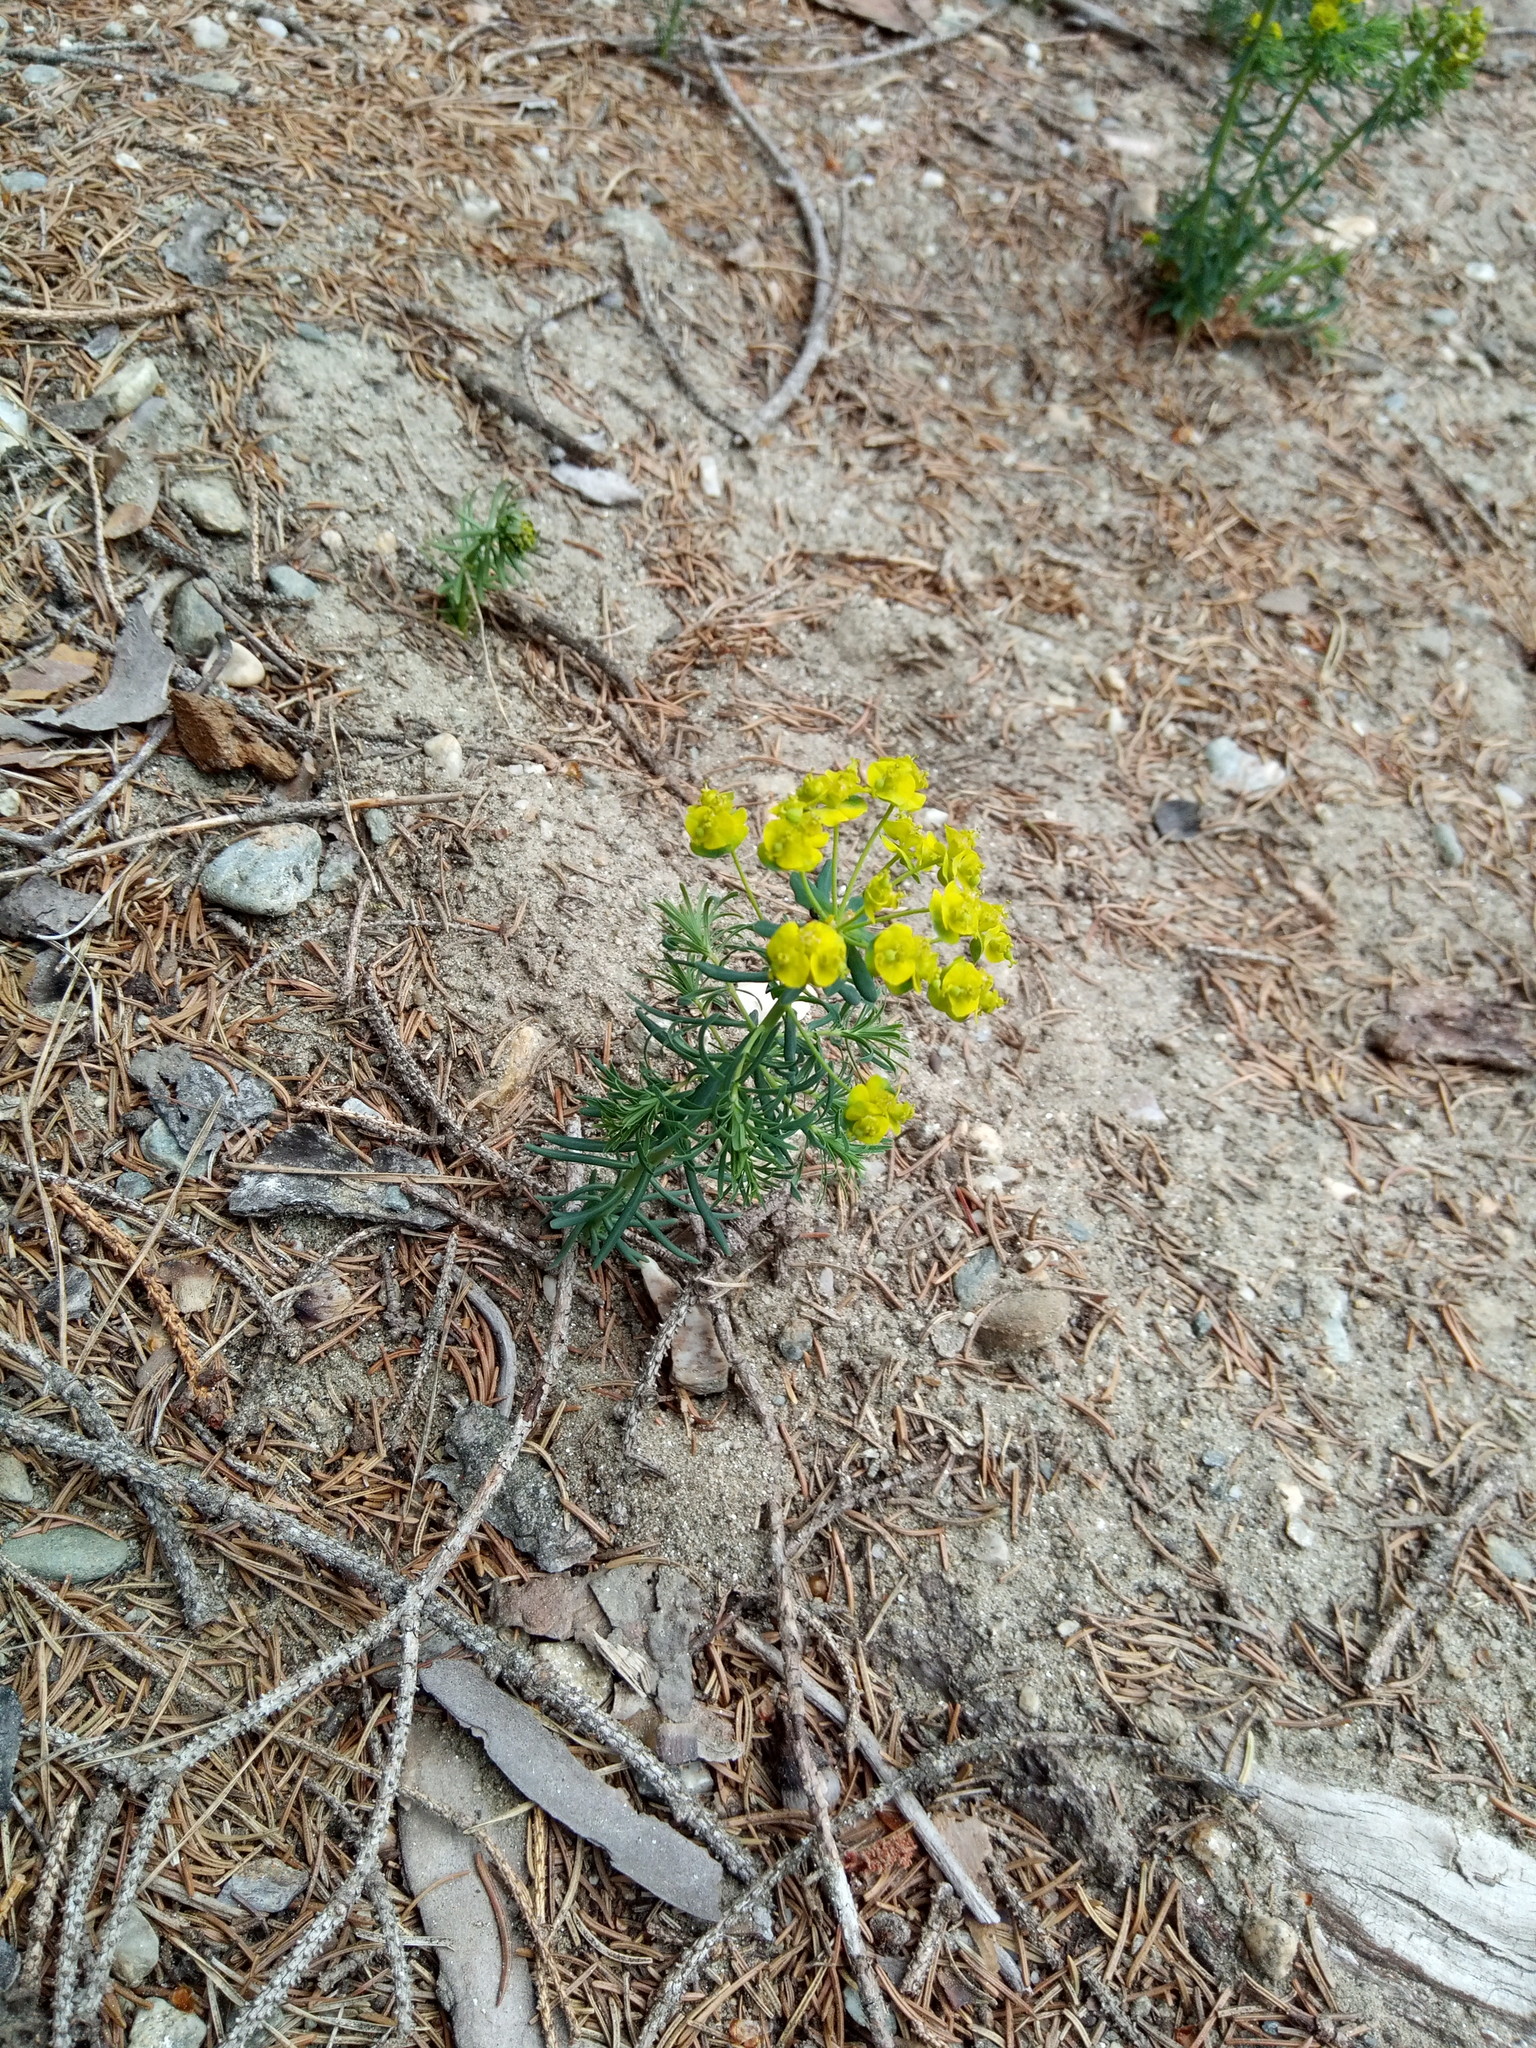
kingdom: Plantae
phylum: Tracheophyta
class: Magnoliopsida
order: Malpighiales
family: Euphorbiaceae
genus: Euphorbia
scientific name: Euphorbia cyparissias
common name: Cypress spurge
